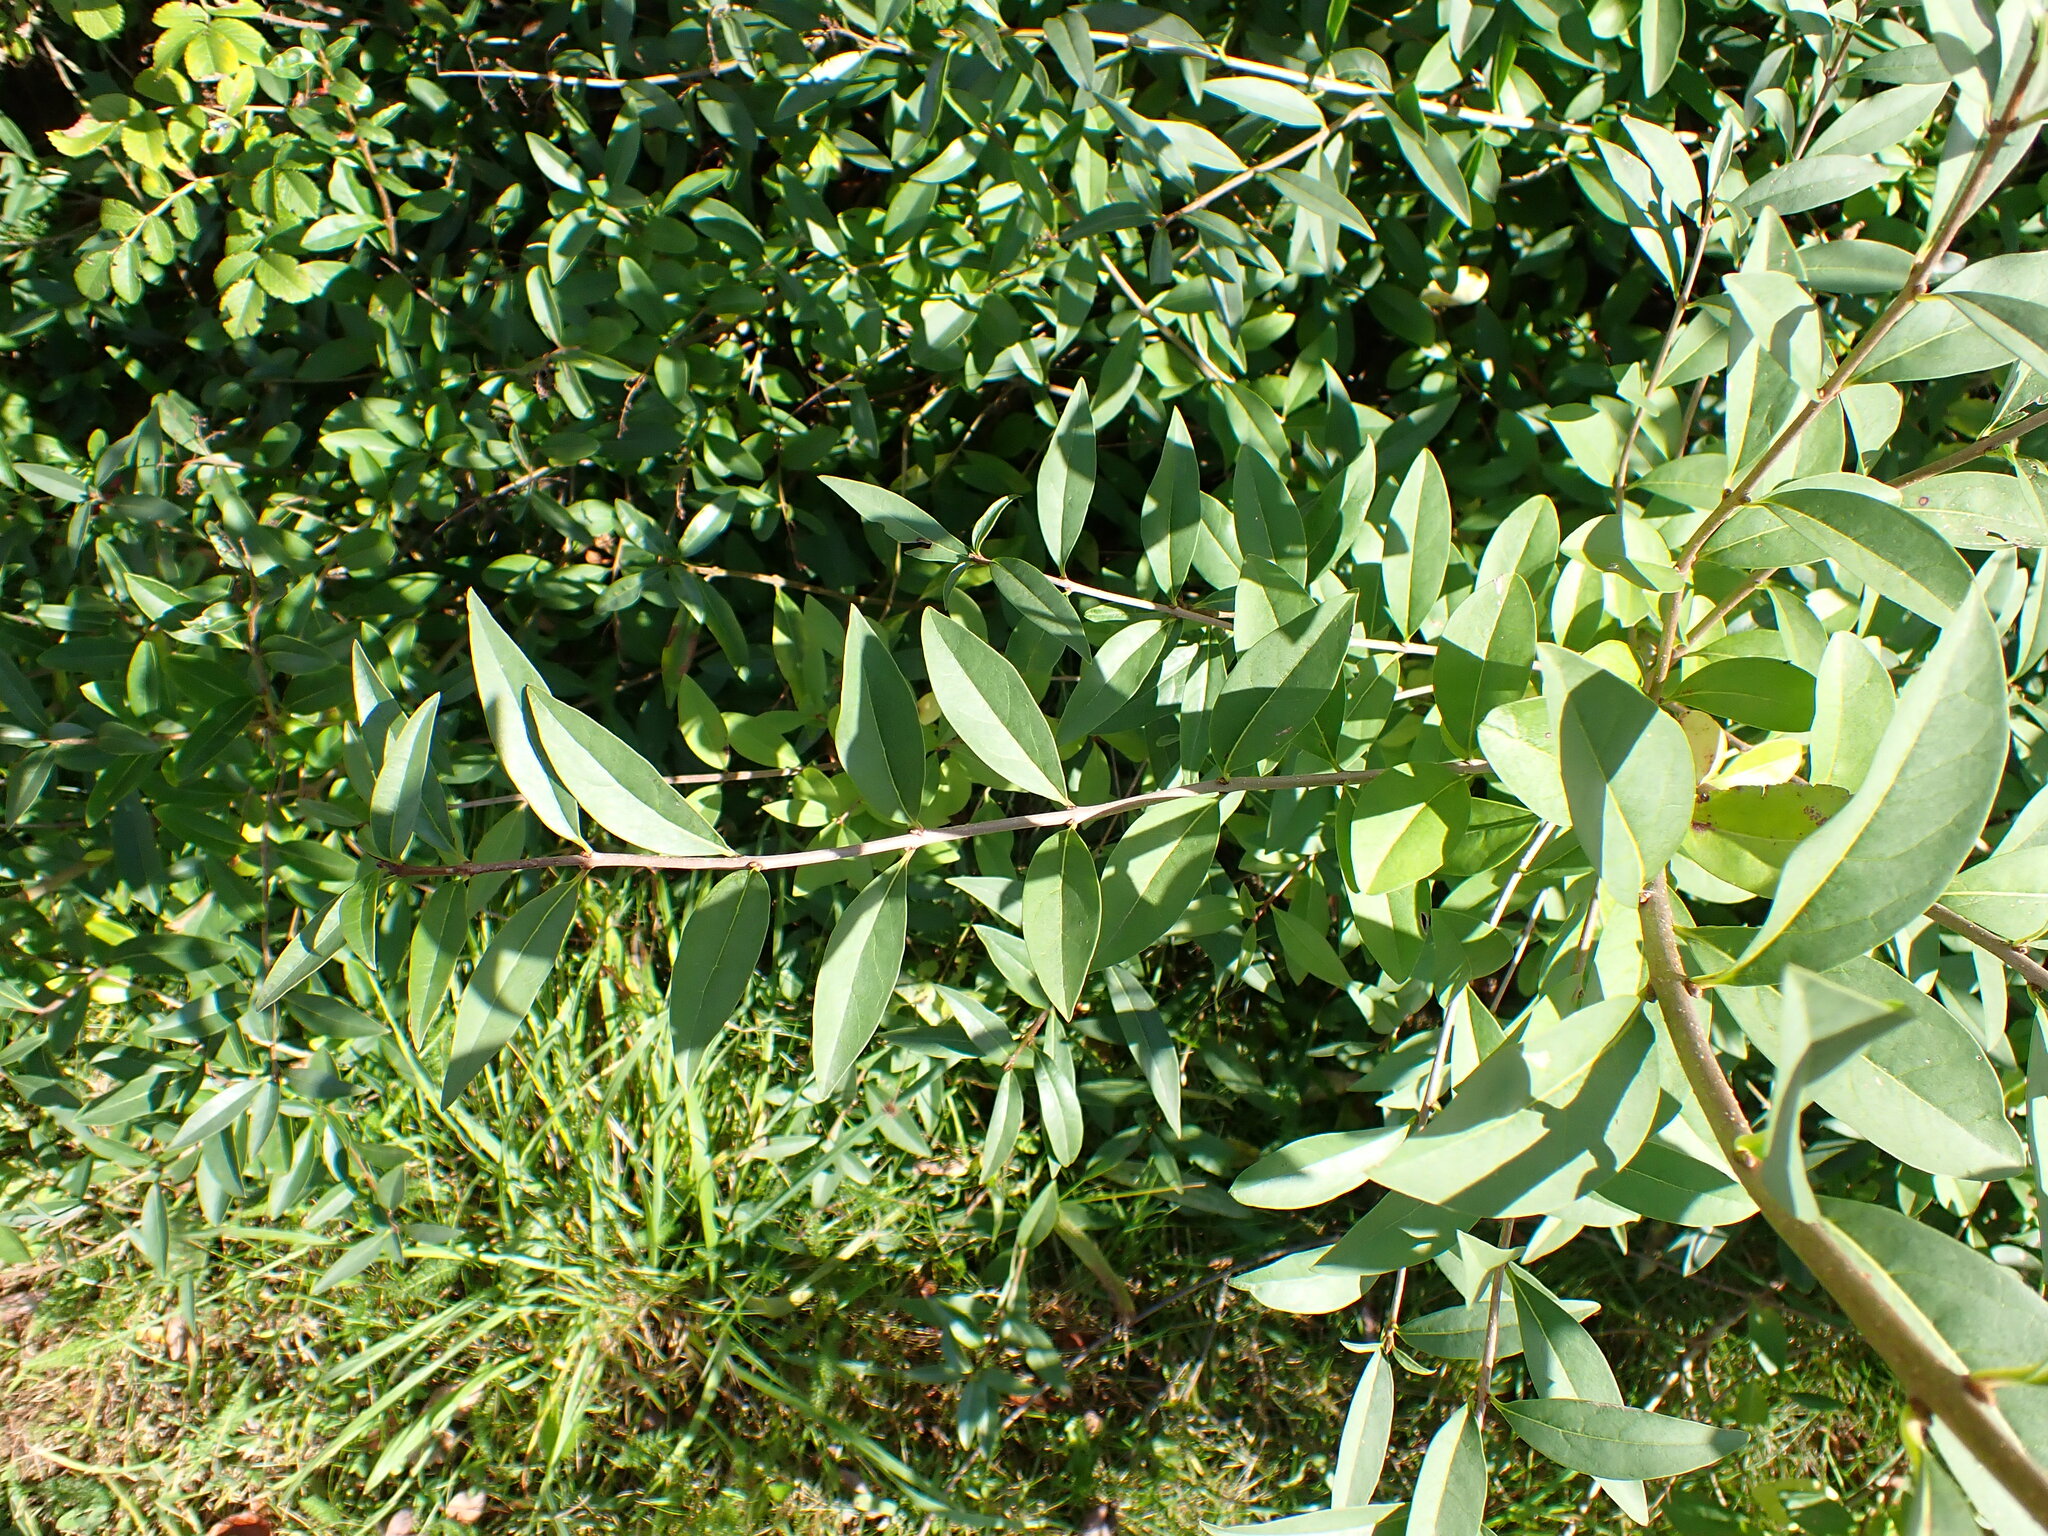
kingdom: Plantae
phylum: Tracheophyta
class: Magnoliopsida
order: Lamiales
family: Oleaceae
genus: Ligustrum
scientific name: Ligustrum vulgare
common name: Wild privet
